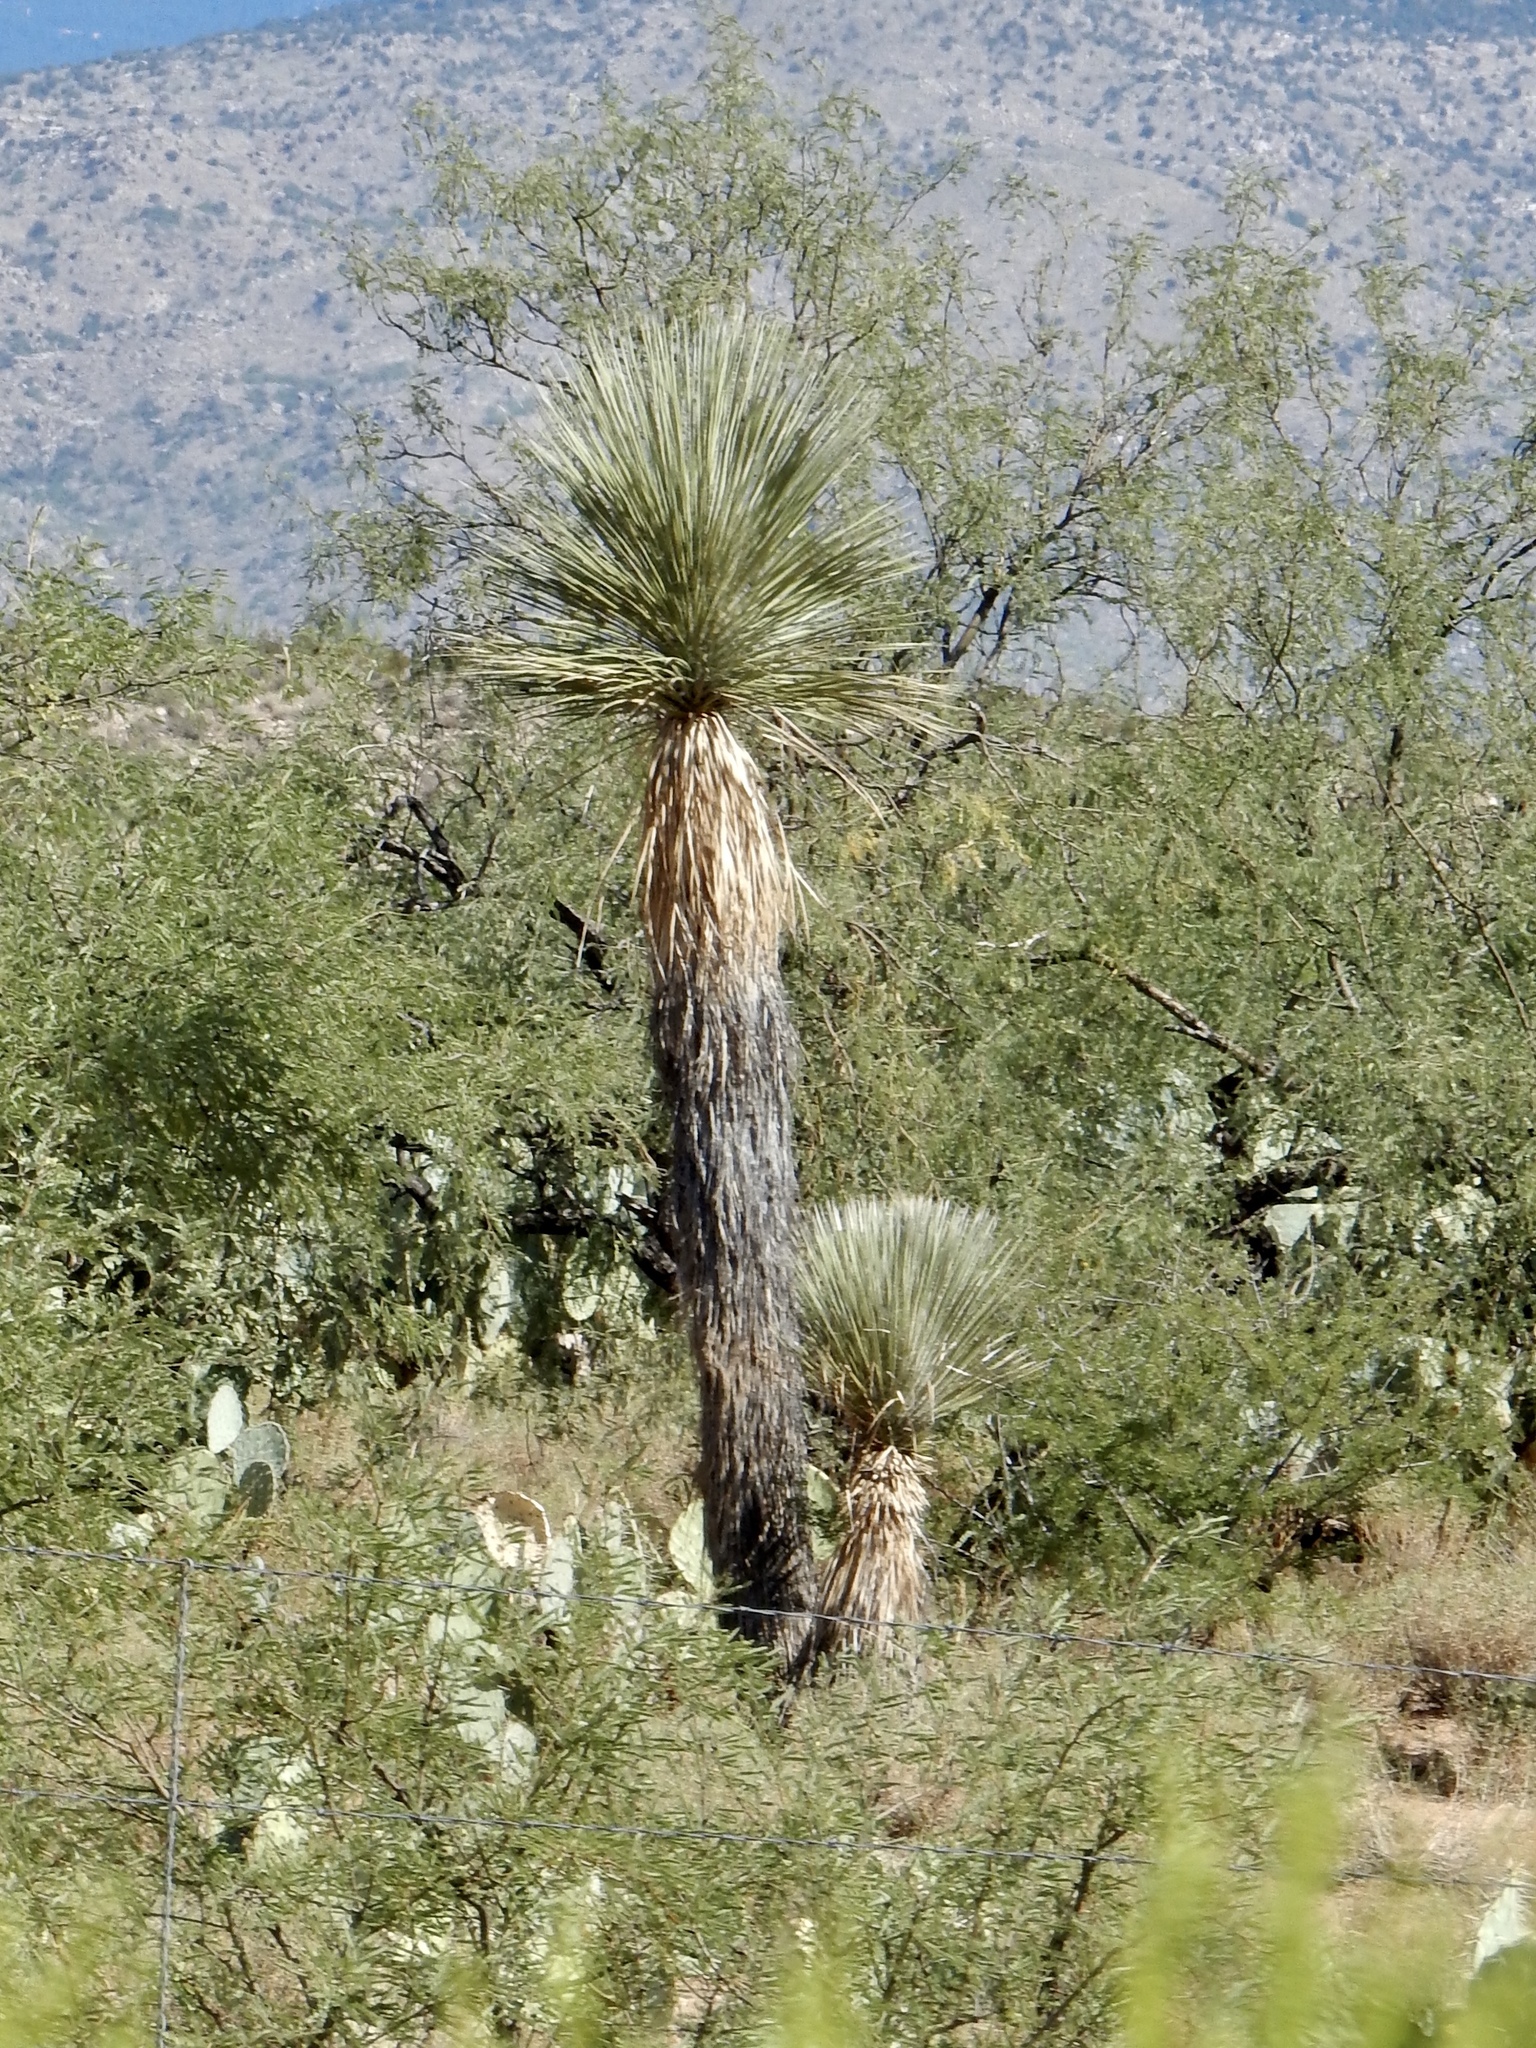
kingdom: Plantae
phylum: Tracheophyta
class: Liliopsida
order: Asparagales
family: Asparagaceae
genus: Yucca
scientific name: Yucca elata
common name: Palmella
